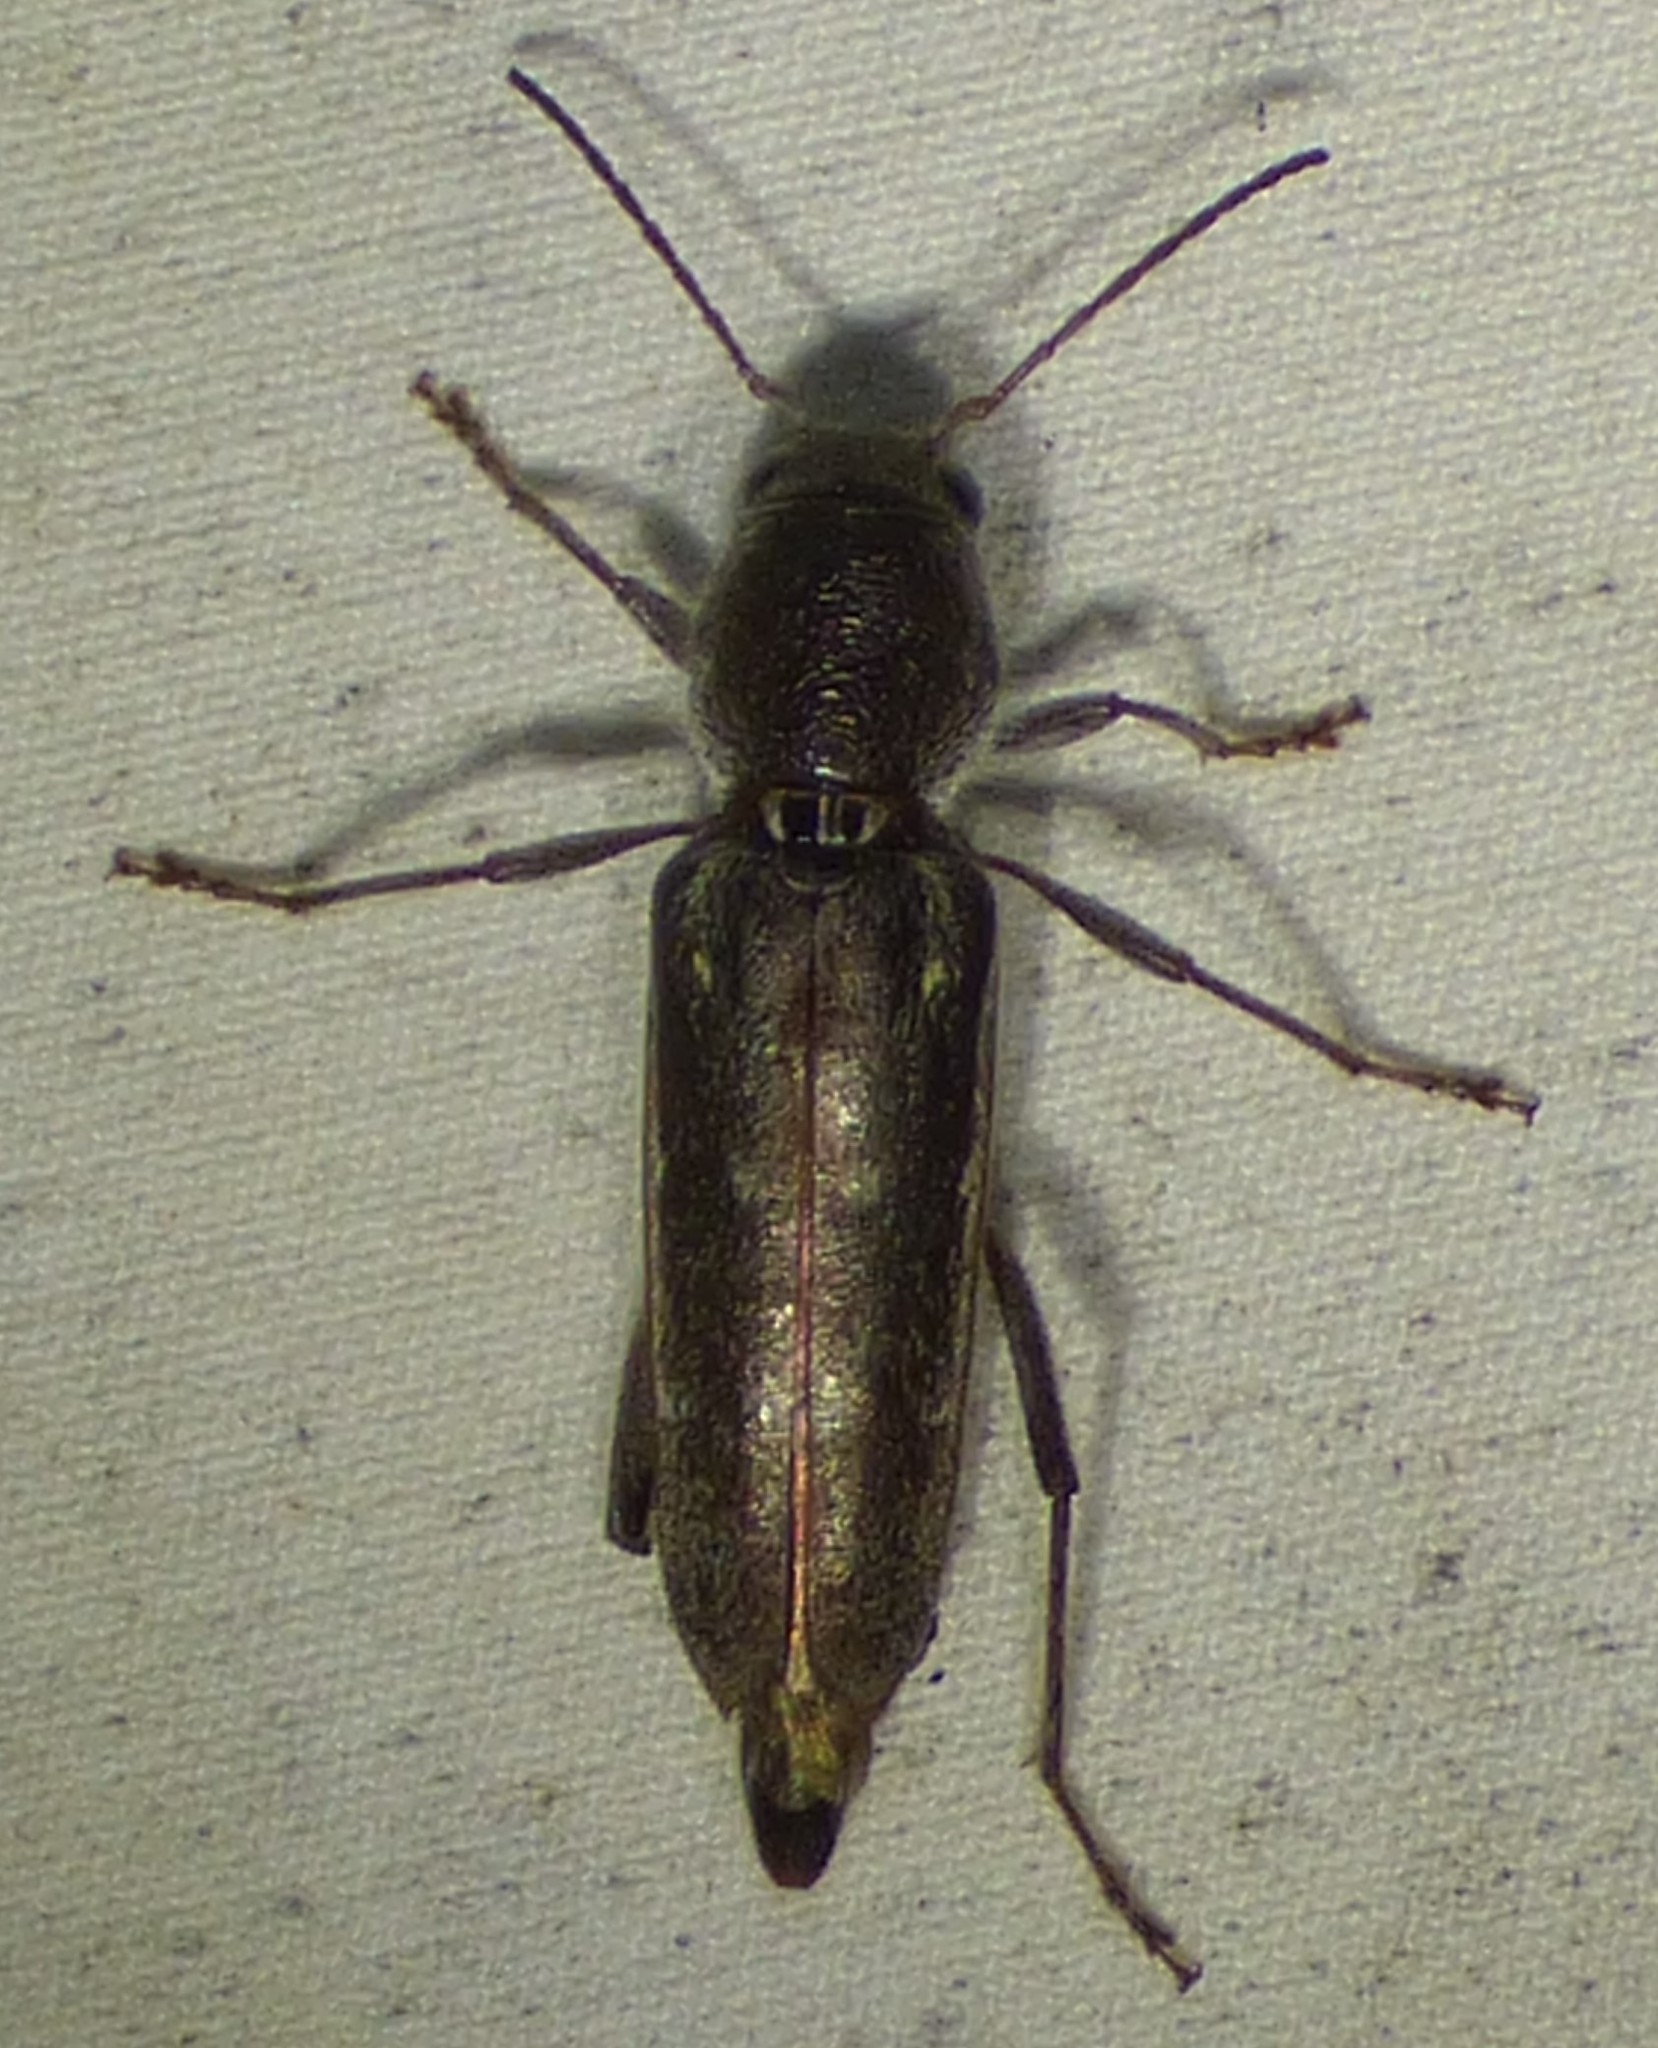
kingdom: Animalia
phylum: Arthropoda
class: Insecta
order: Coleoptera
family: Cerambycidae
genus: Xylotrechus
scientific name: Xylotrechus sagittatus
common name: Arrowhead borer
